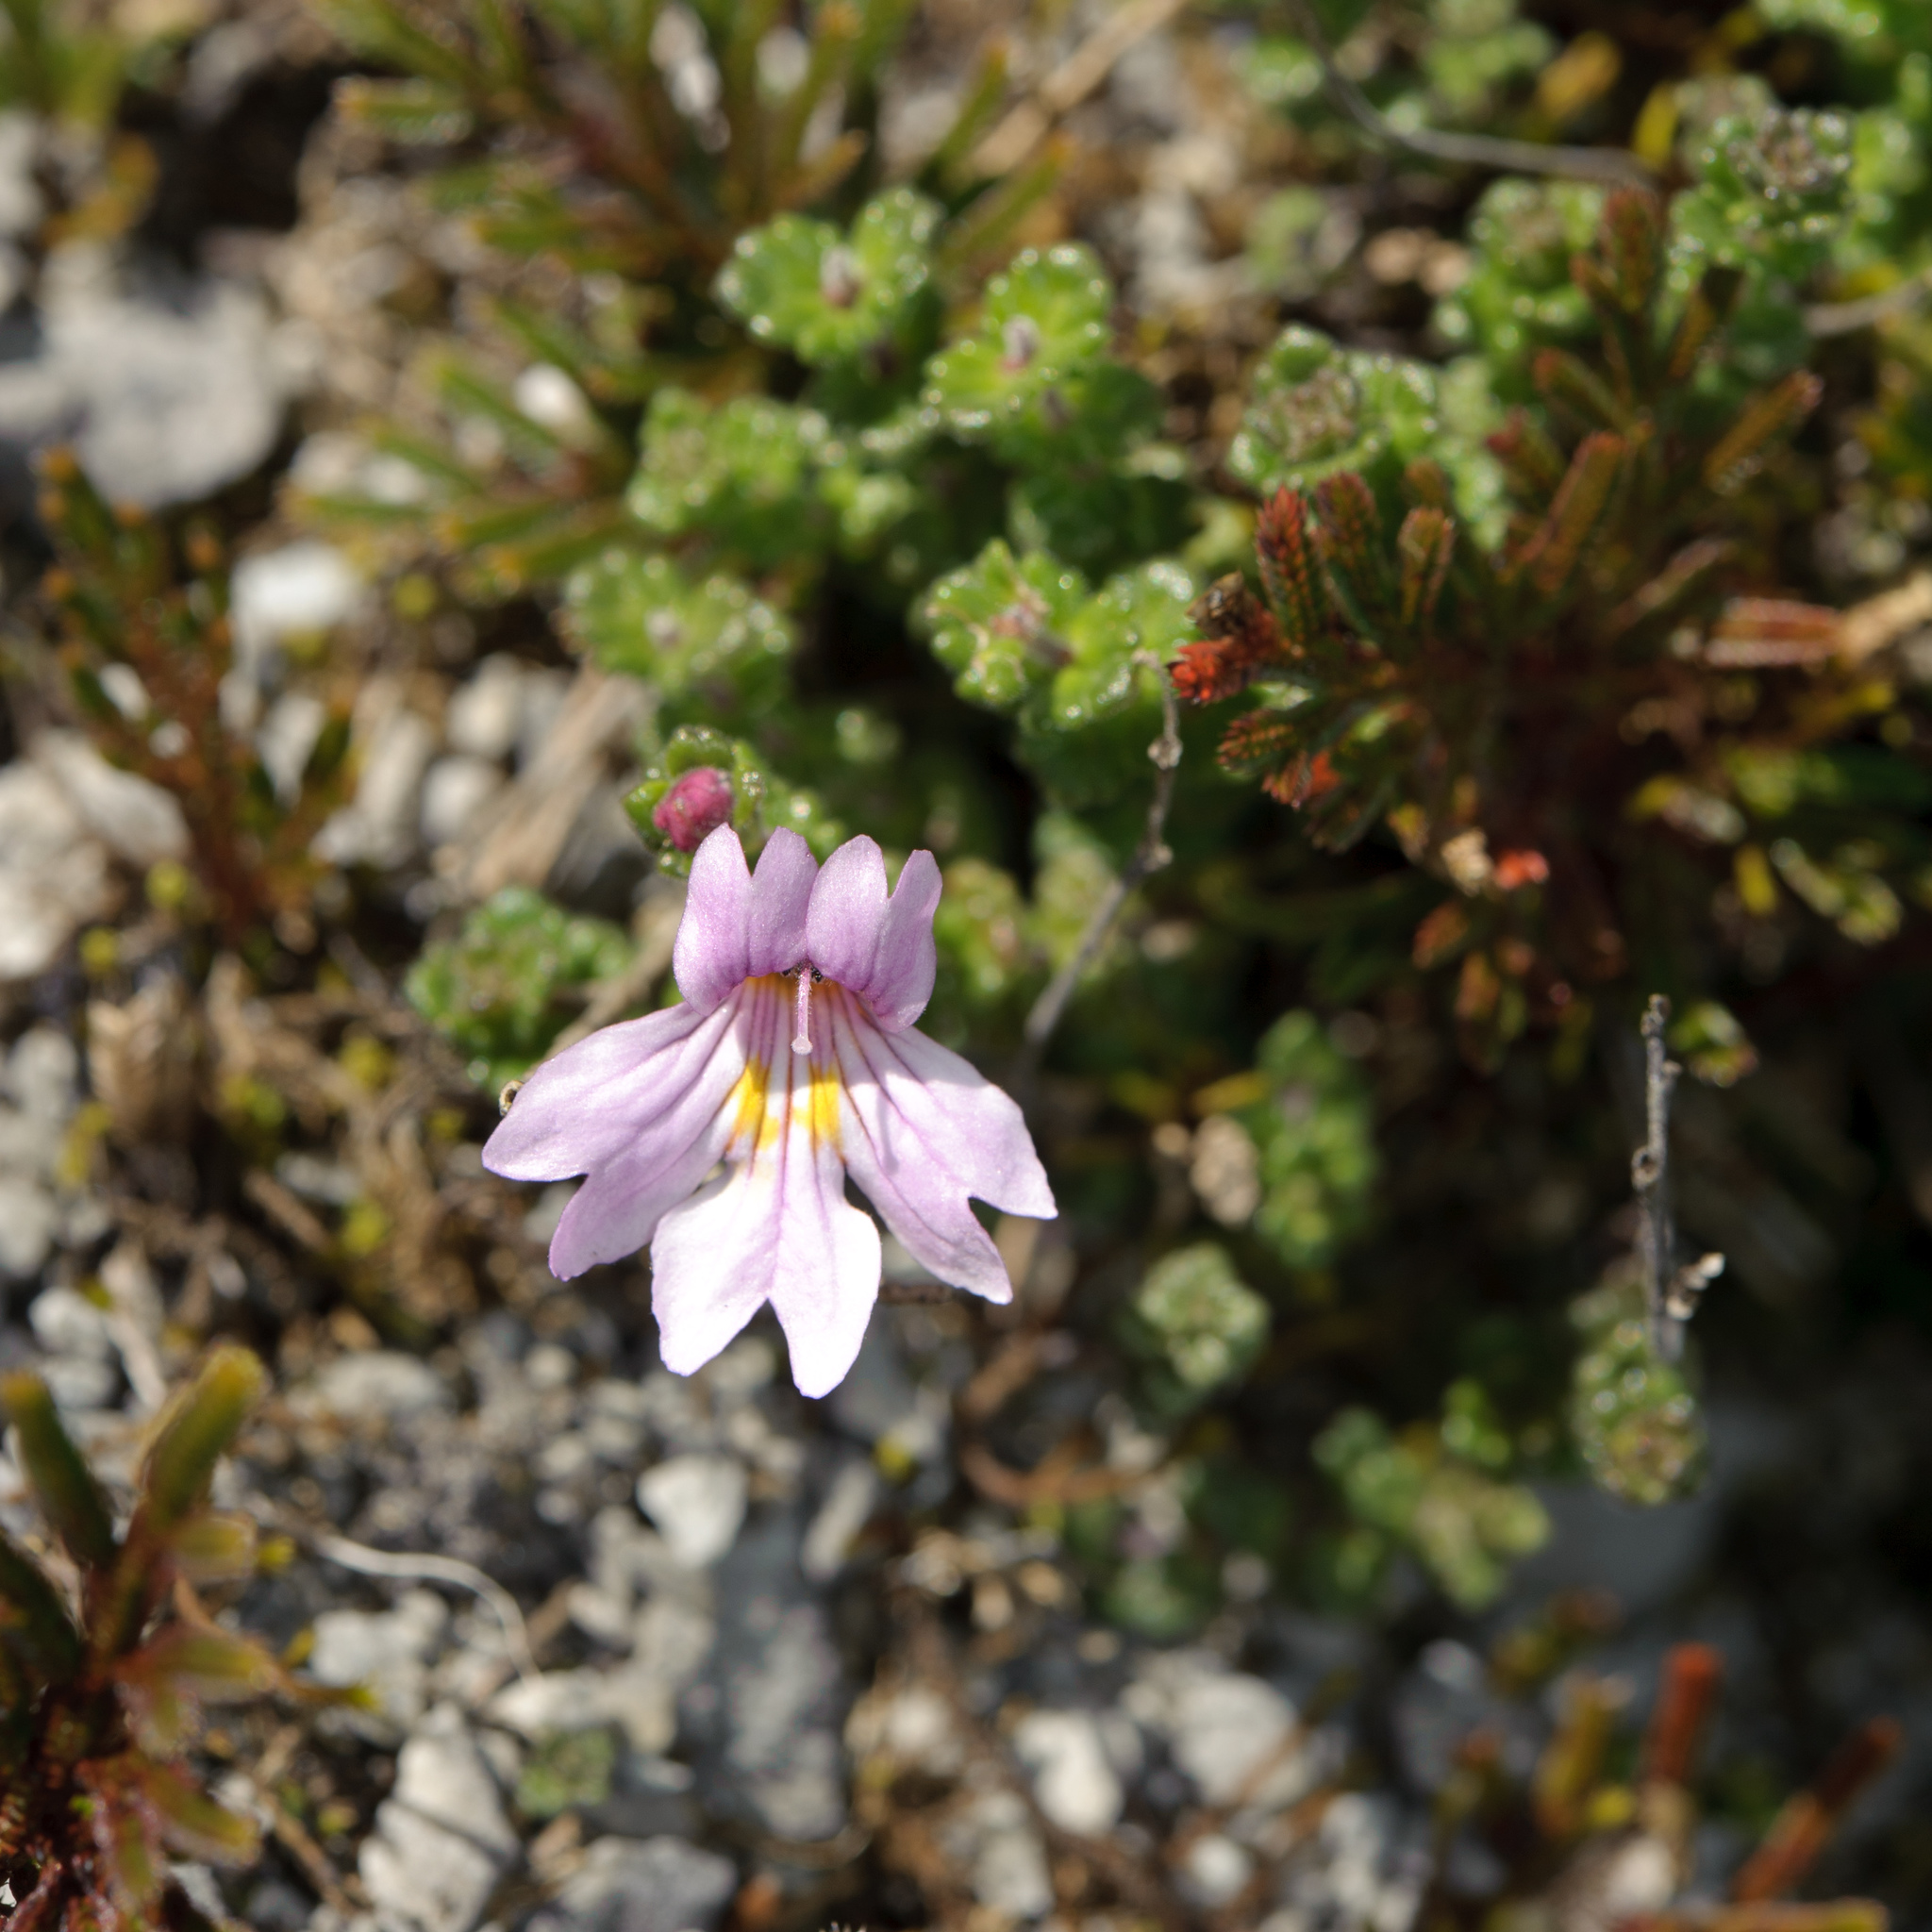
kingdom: Plantae
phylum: Tracheophyta
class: Magnoliopsida
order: Lamiales
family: Orobanchaceae
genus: Euphrasia
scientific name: Euphrasia tarokoana
